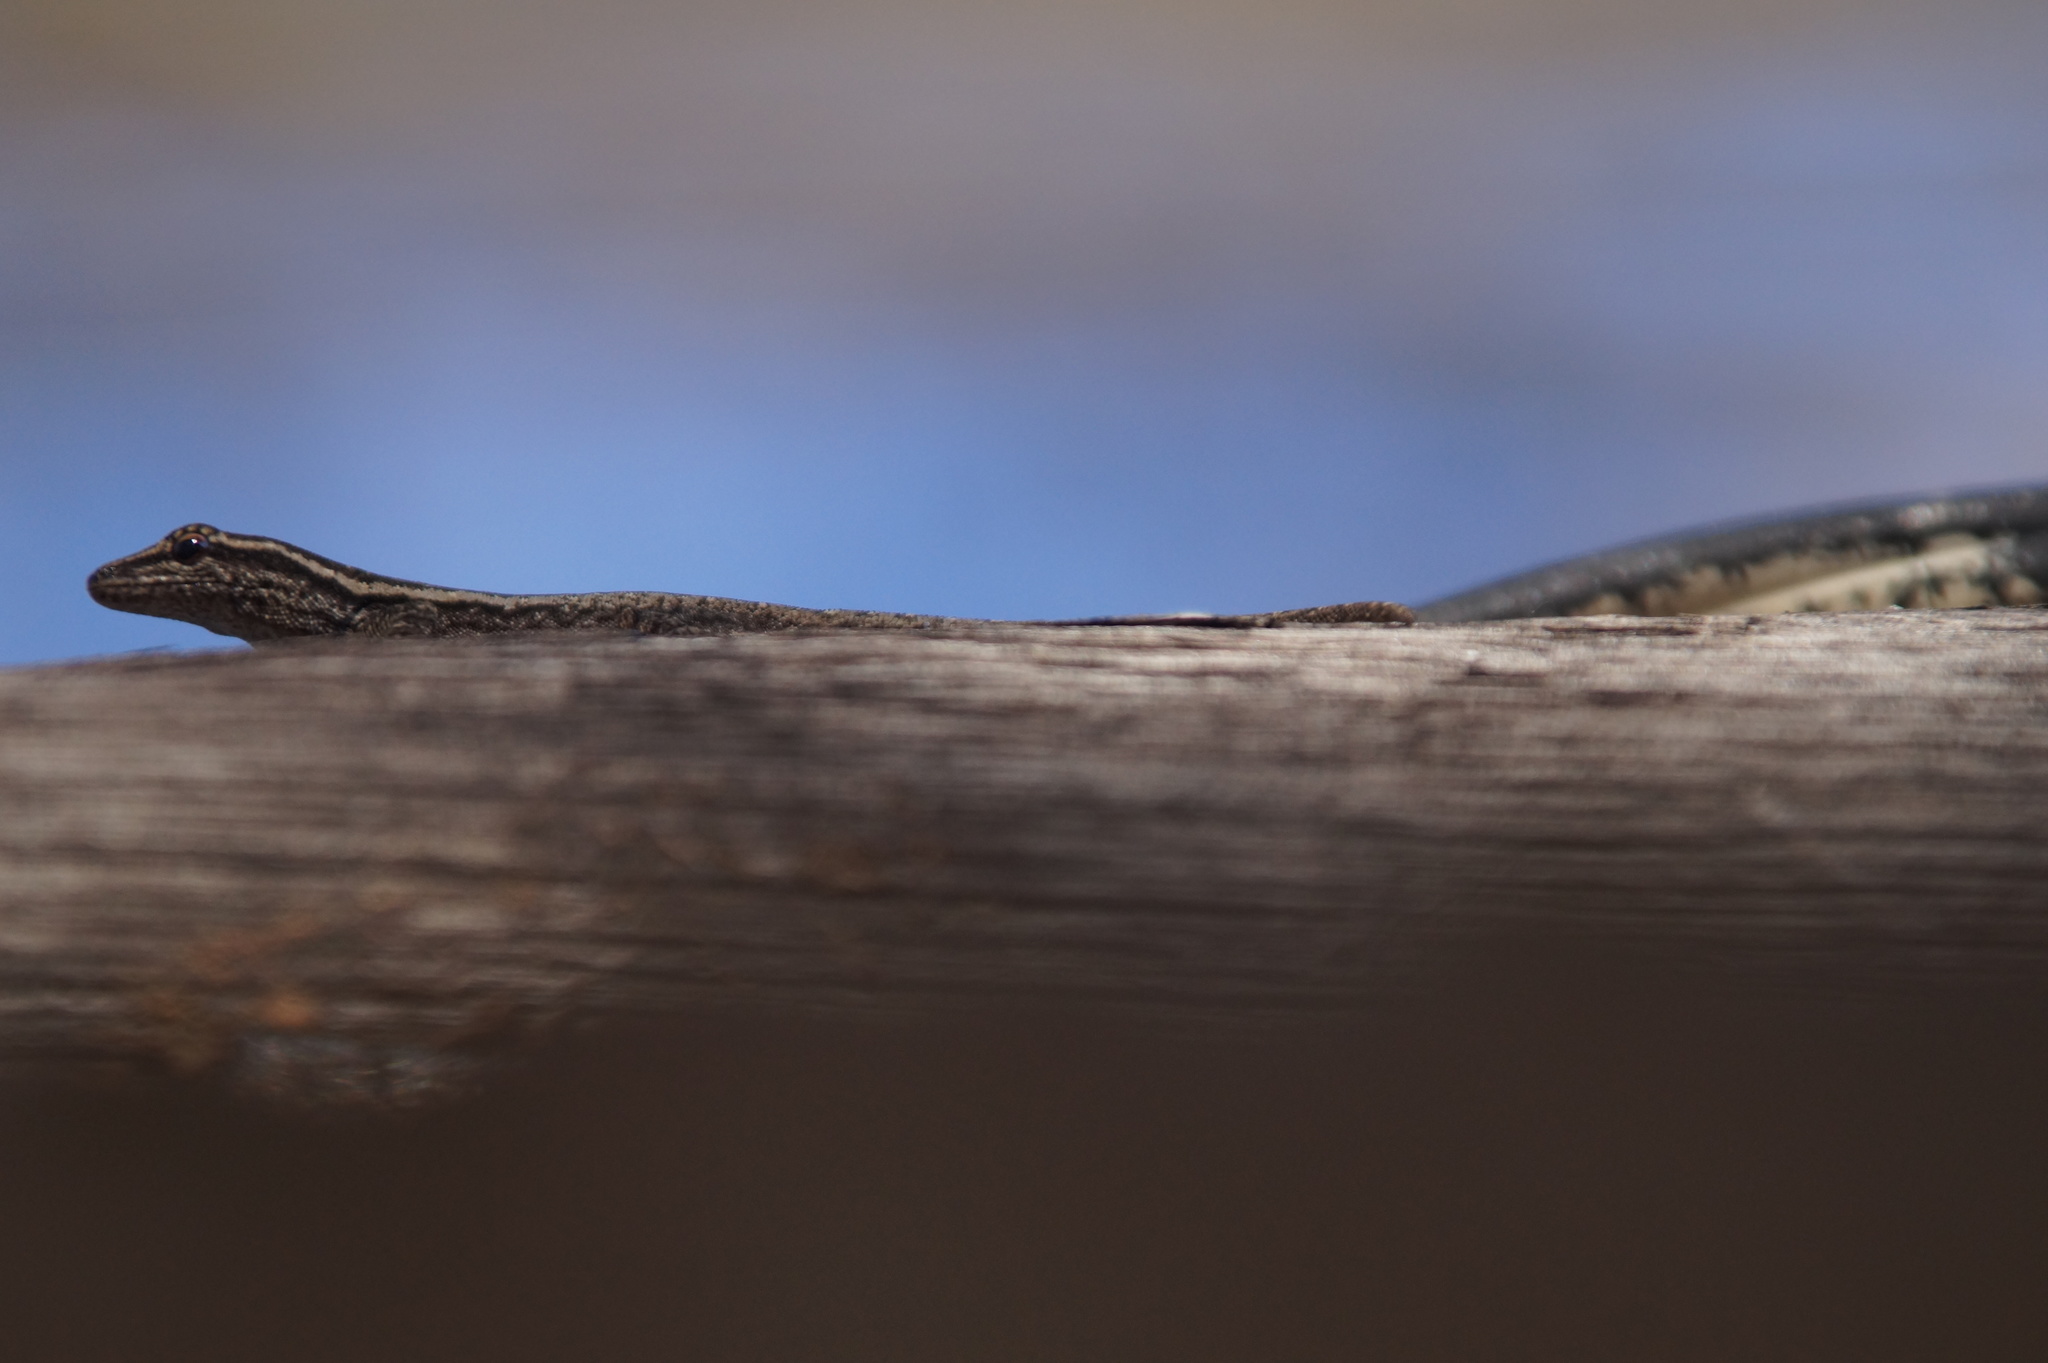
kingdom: Animalia
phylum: Chordata
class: Squamata
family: Gekkonidae
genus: Lygodactylus
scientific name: Lygodactylus capensis
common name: Cape dwarf gecko
